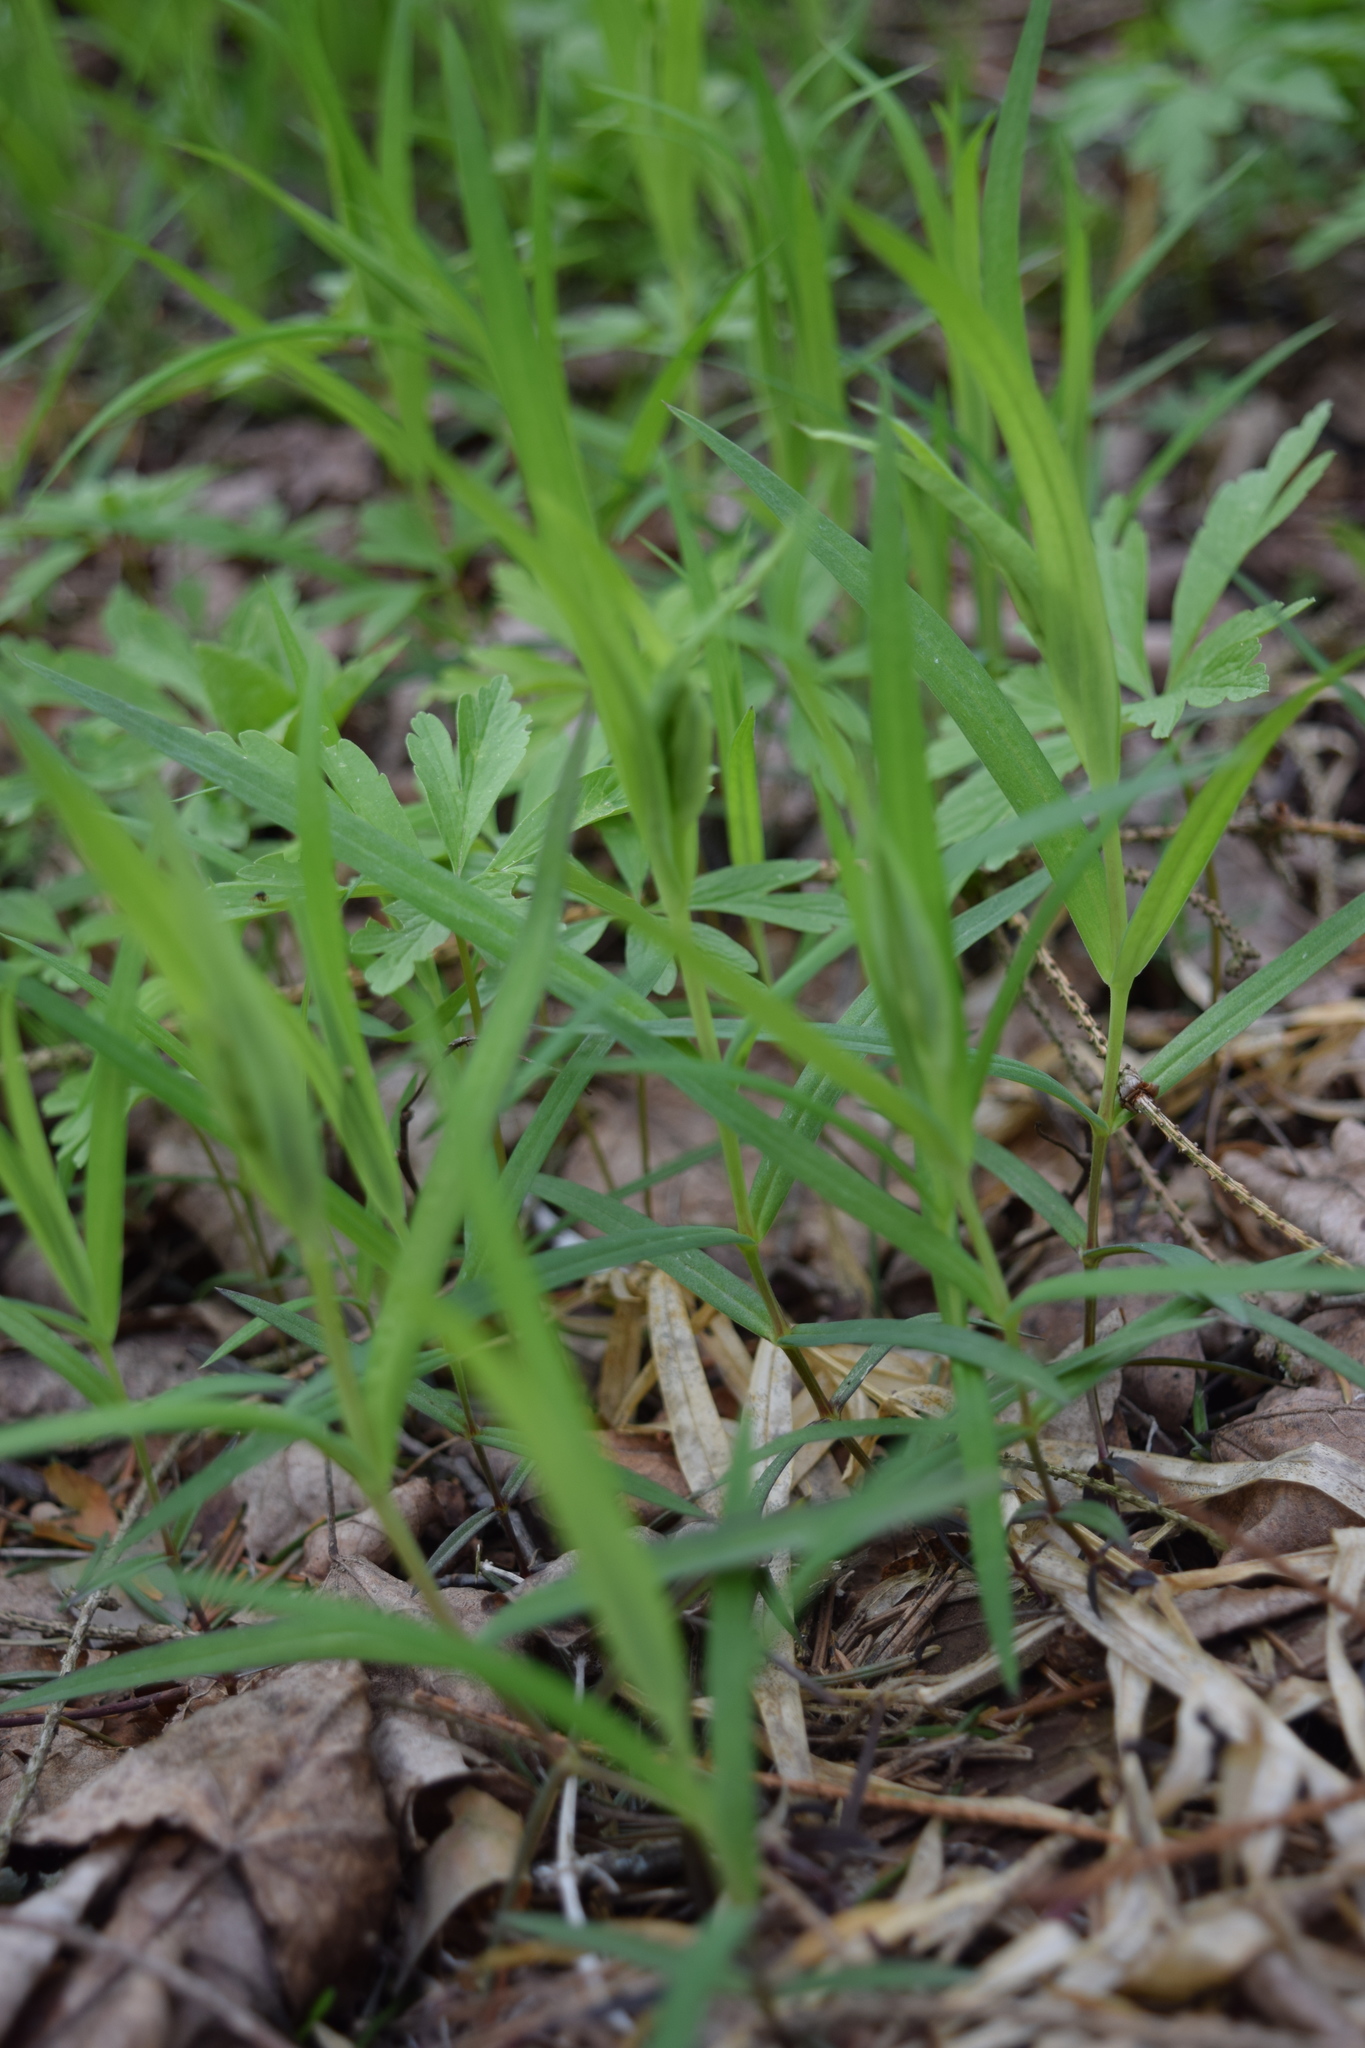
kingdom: Plantae
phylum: Tracheophyta
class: Magnoliopsida
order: Caryophyllales
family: Caryophyllaceae
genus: Rabelera
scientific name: Rabelera holostea
